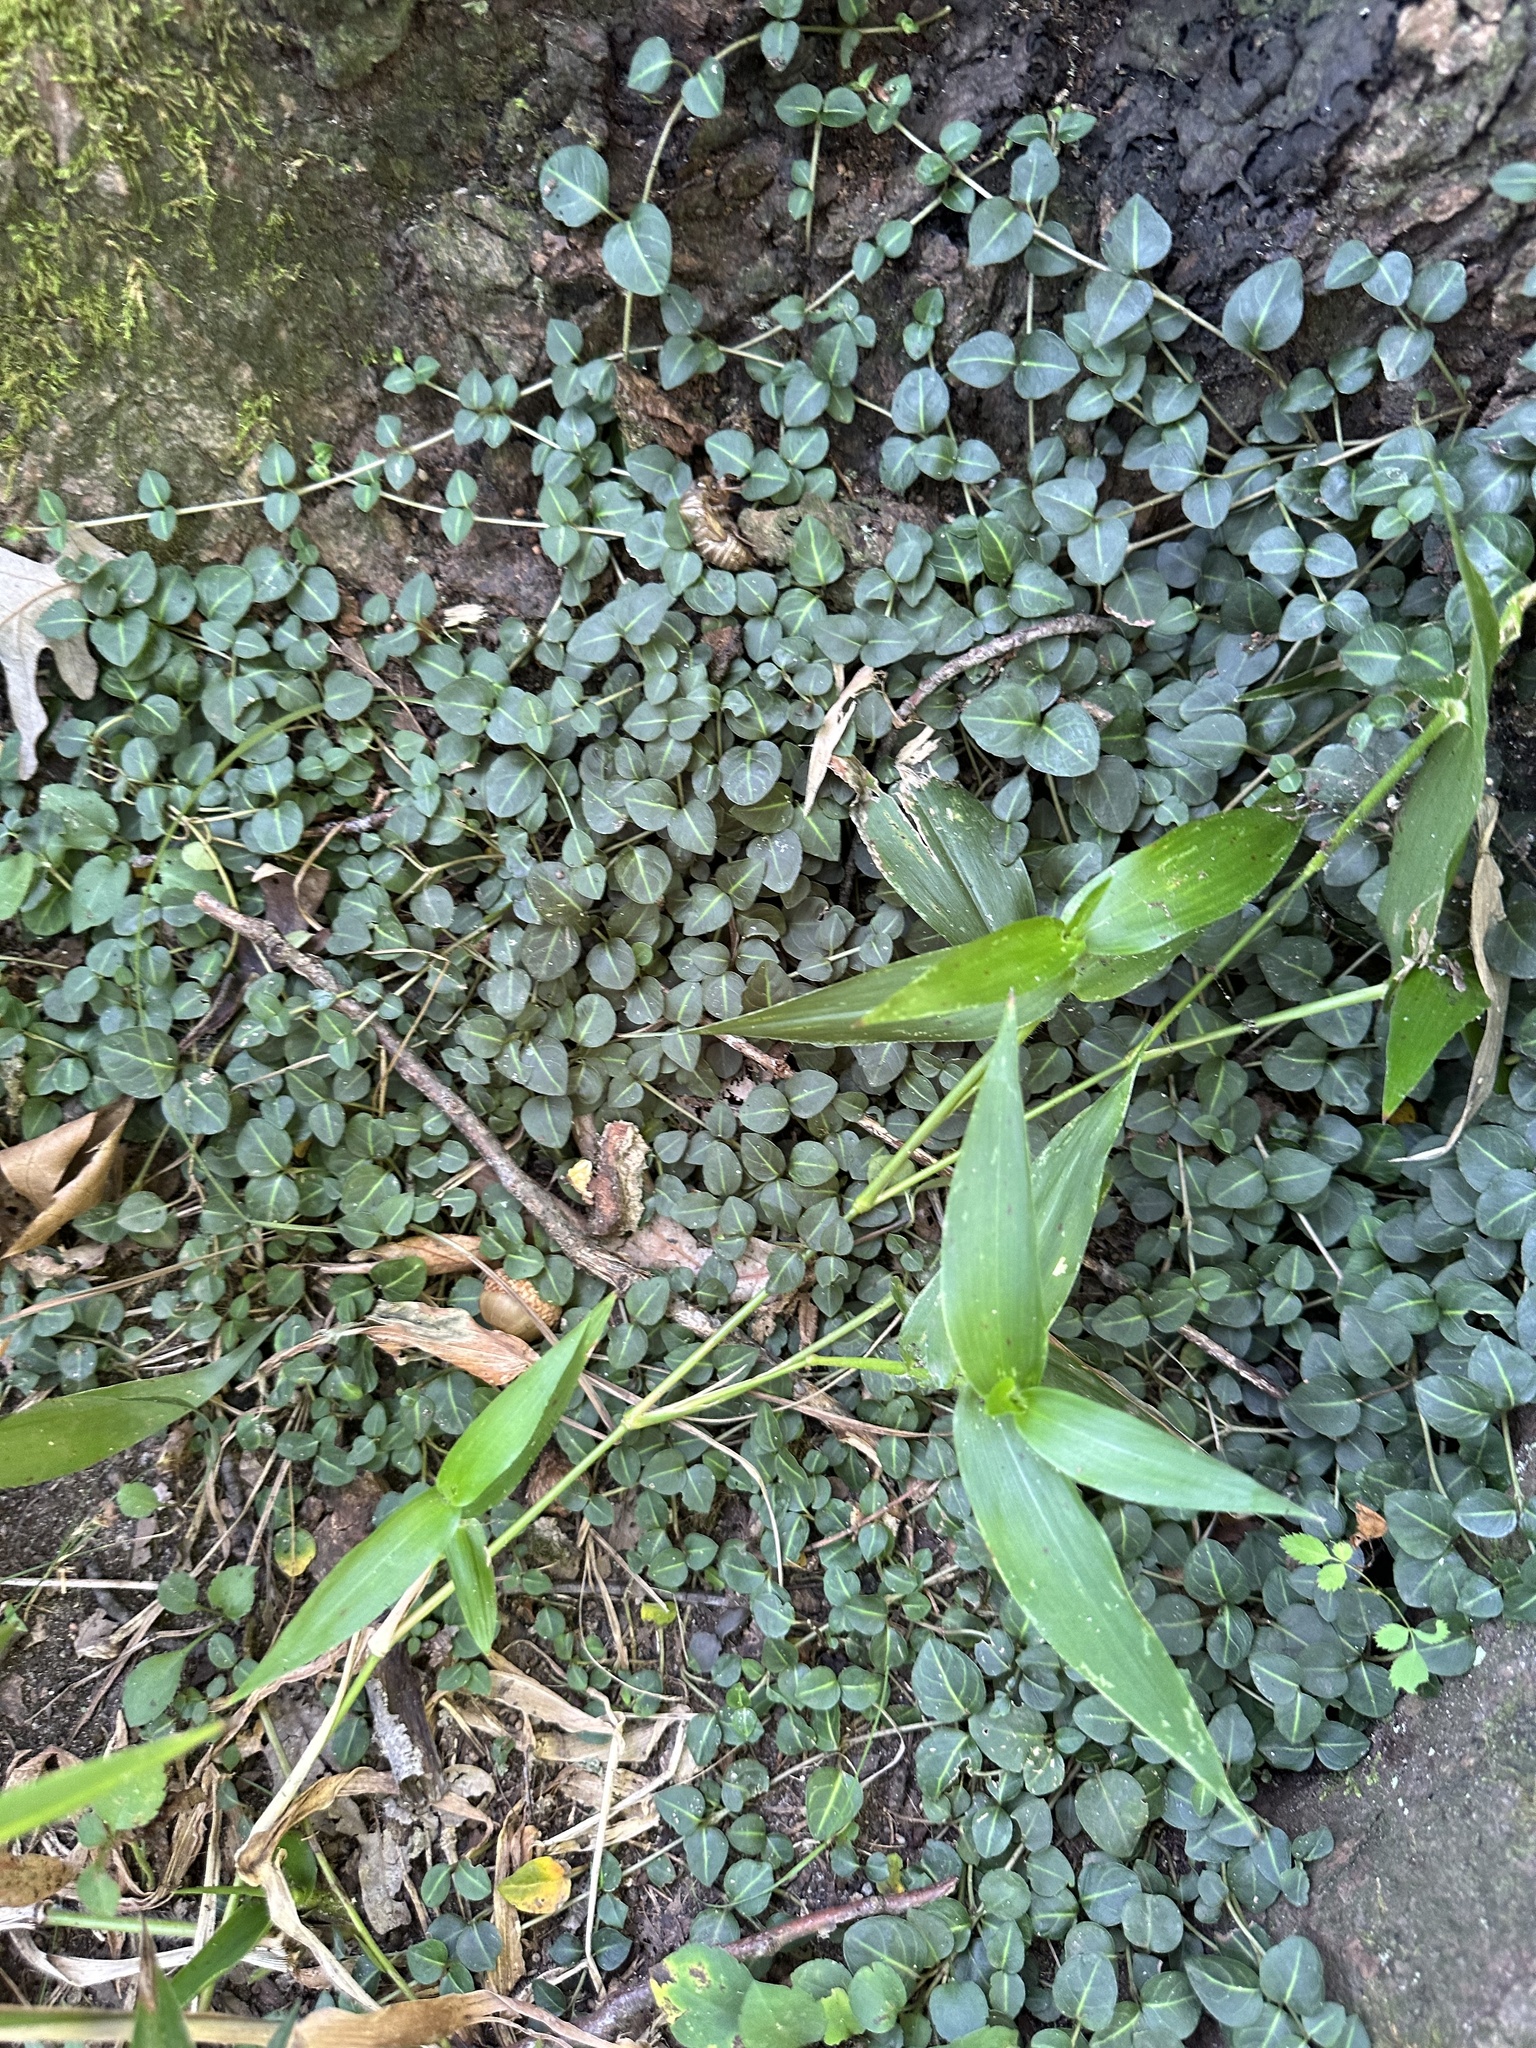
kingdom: Plantae
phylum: Tracheophyta
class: Magnoliopsida
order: Gentianales
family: Rubiaceae
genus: Mitchella
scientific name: Mitchella repens
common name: Partridge-berry
